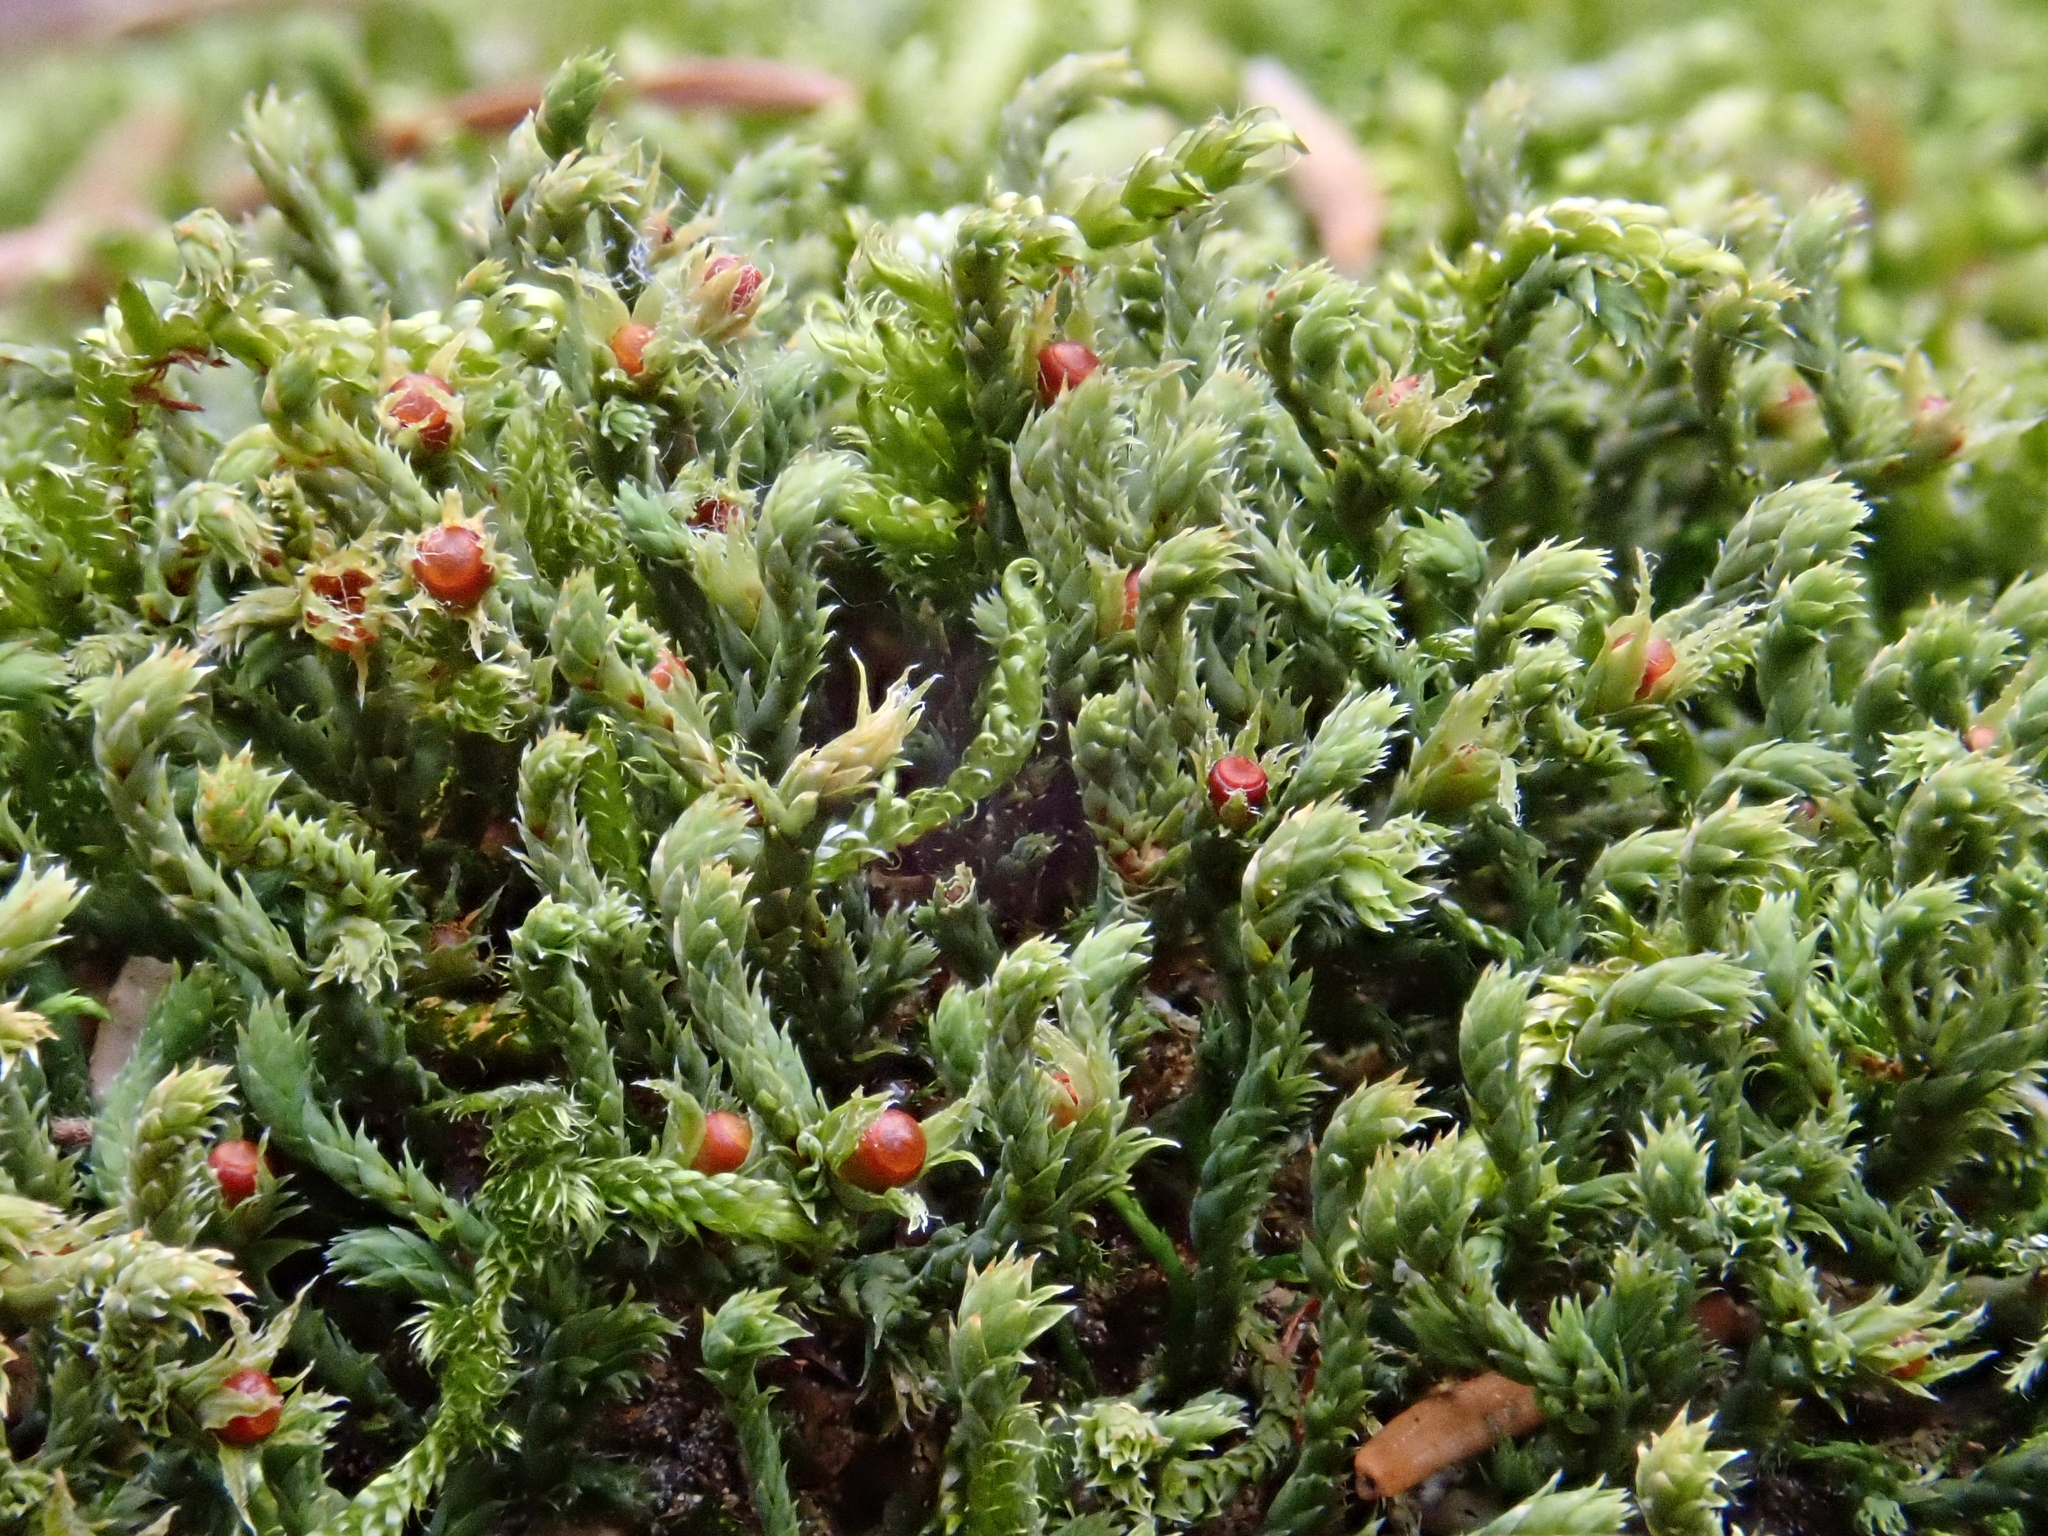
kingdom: Plantae
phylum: Bryophyta
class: Bryopsida
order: Hedwigiales
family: Hedwigiaceae
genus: Hedwigia
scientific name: Hedwigia ciliata
